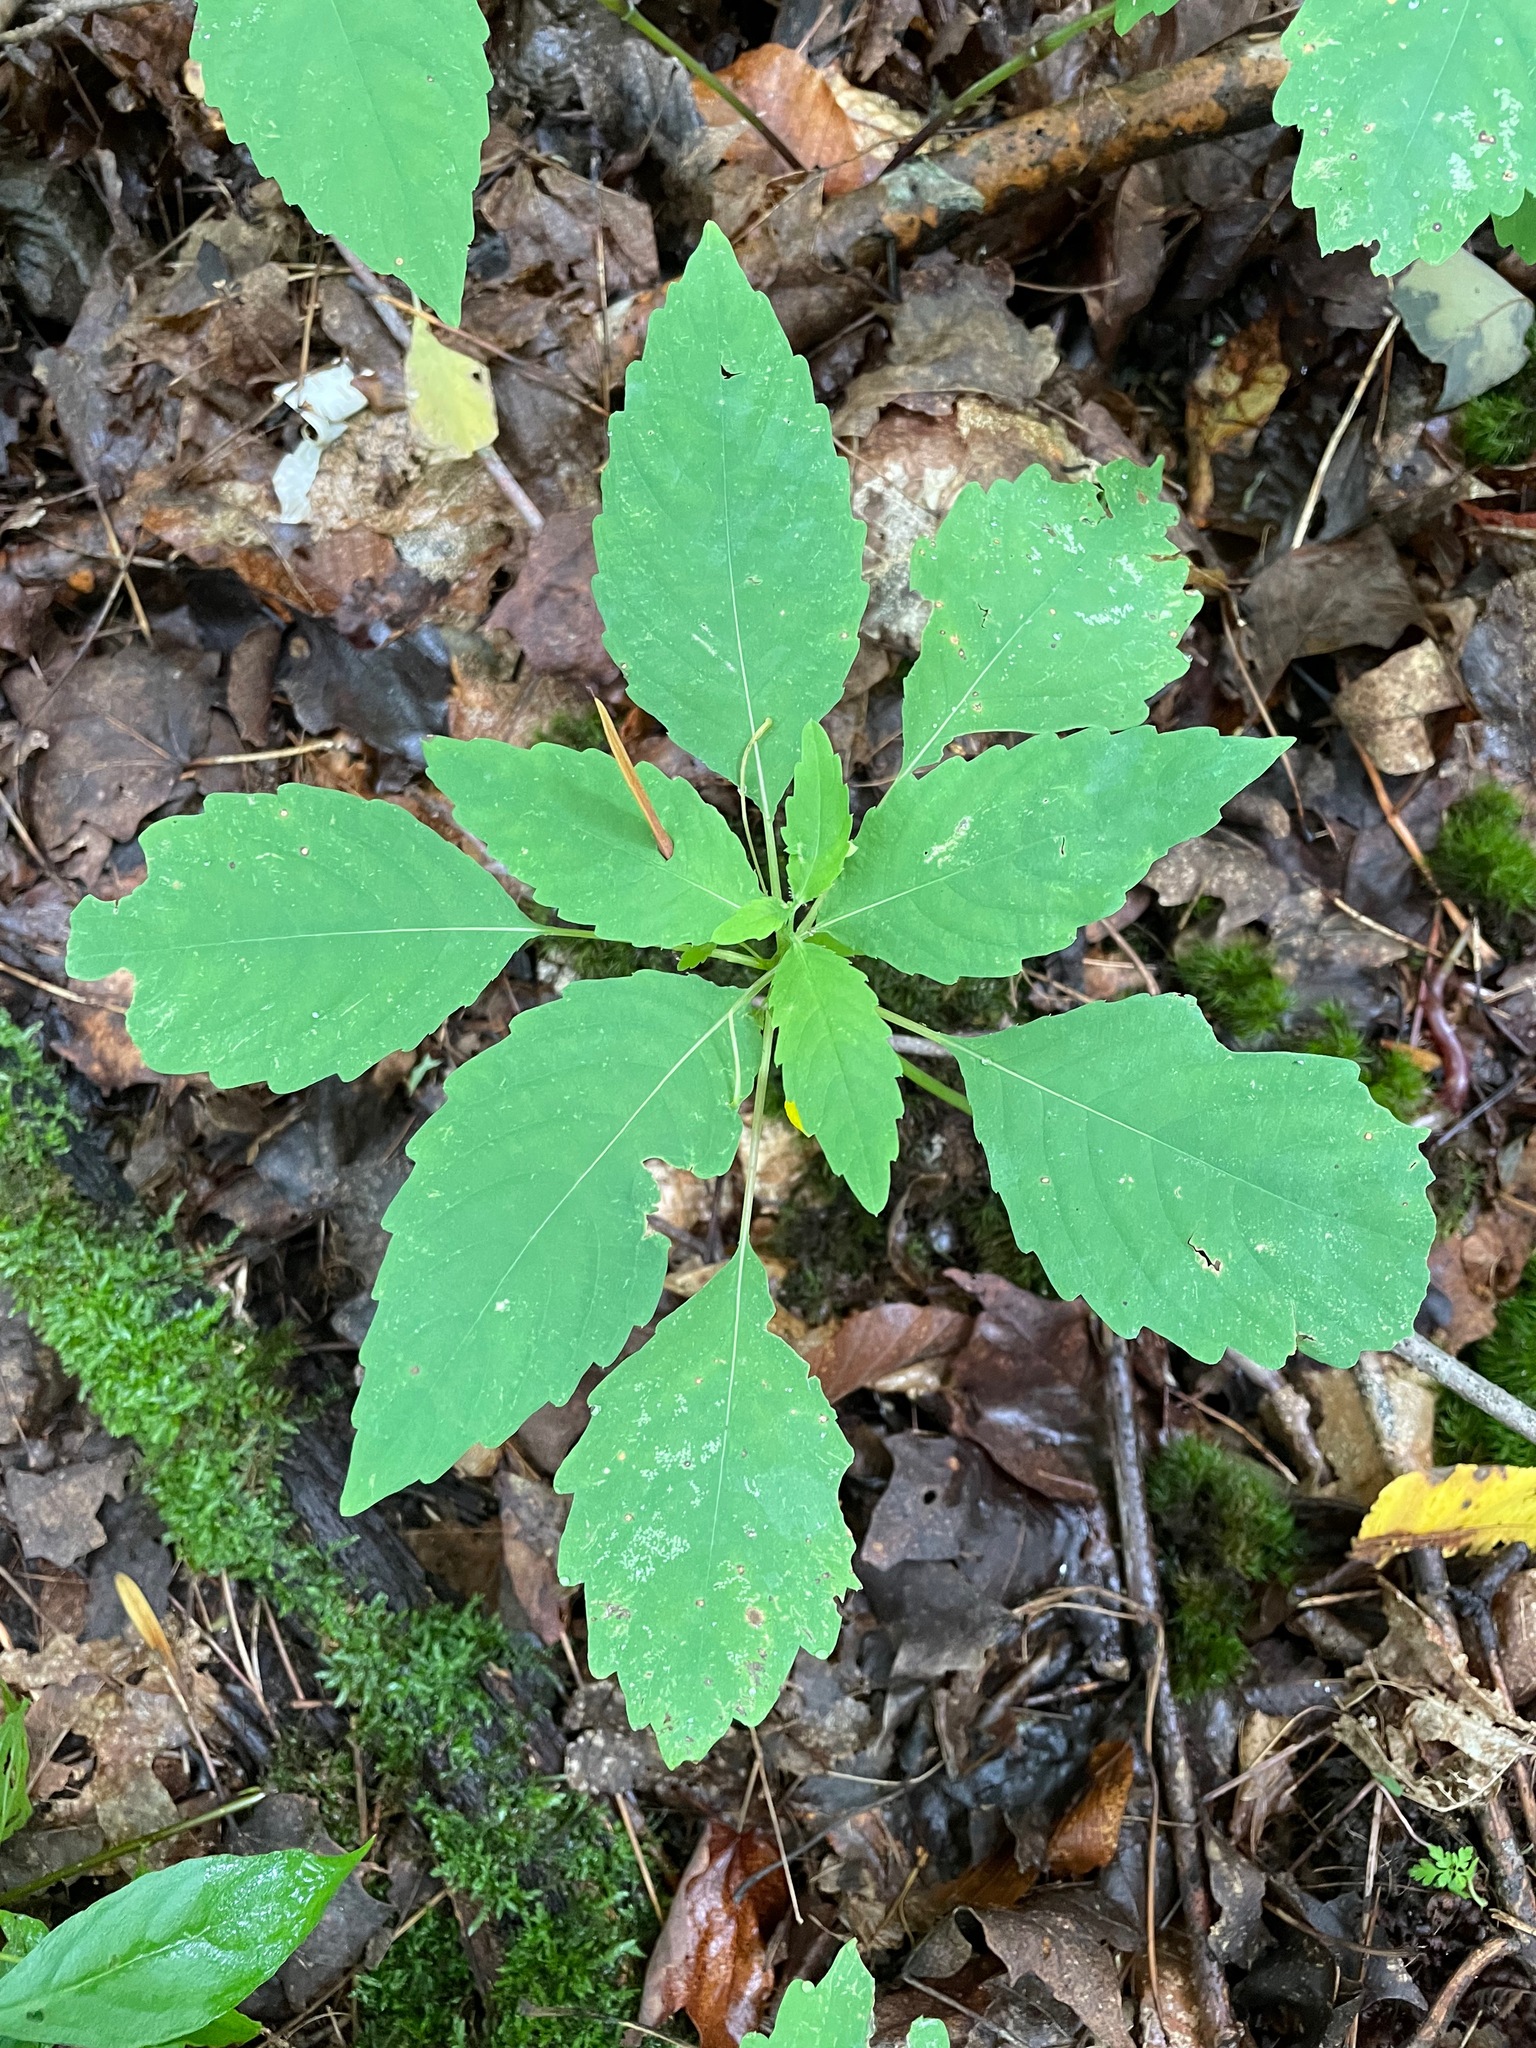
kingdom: Plantae
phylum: Tracheophyta
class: Magnoliopsida
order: Ericales
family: Balsaminaceae
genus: Impatiens
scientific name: Impatiens pallida
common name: Pale snapweed
